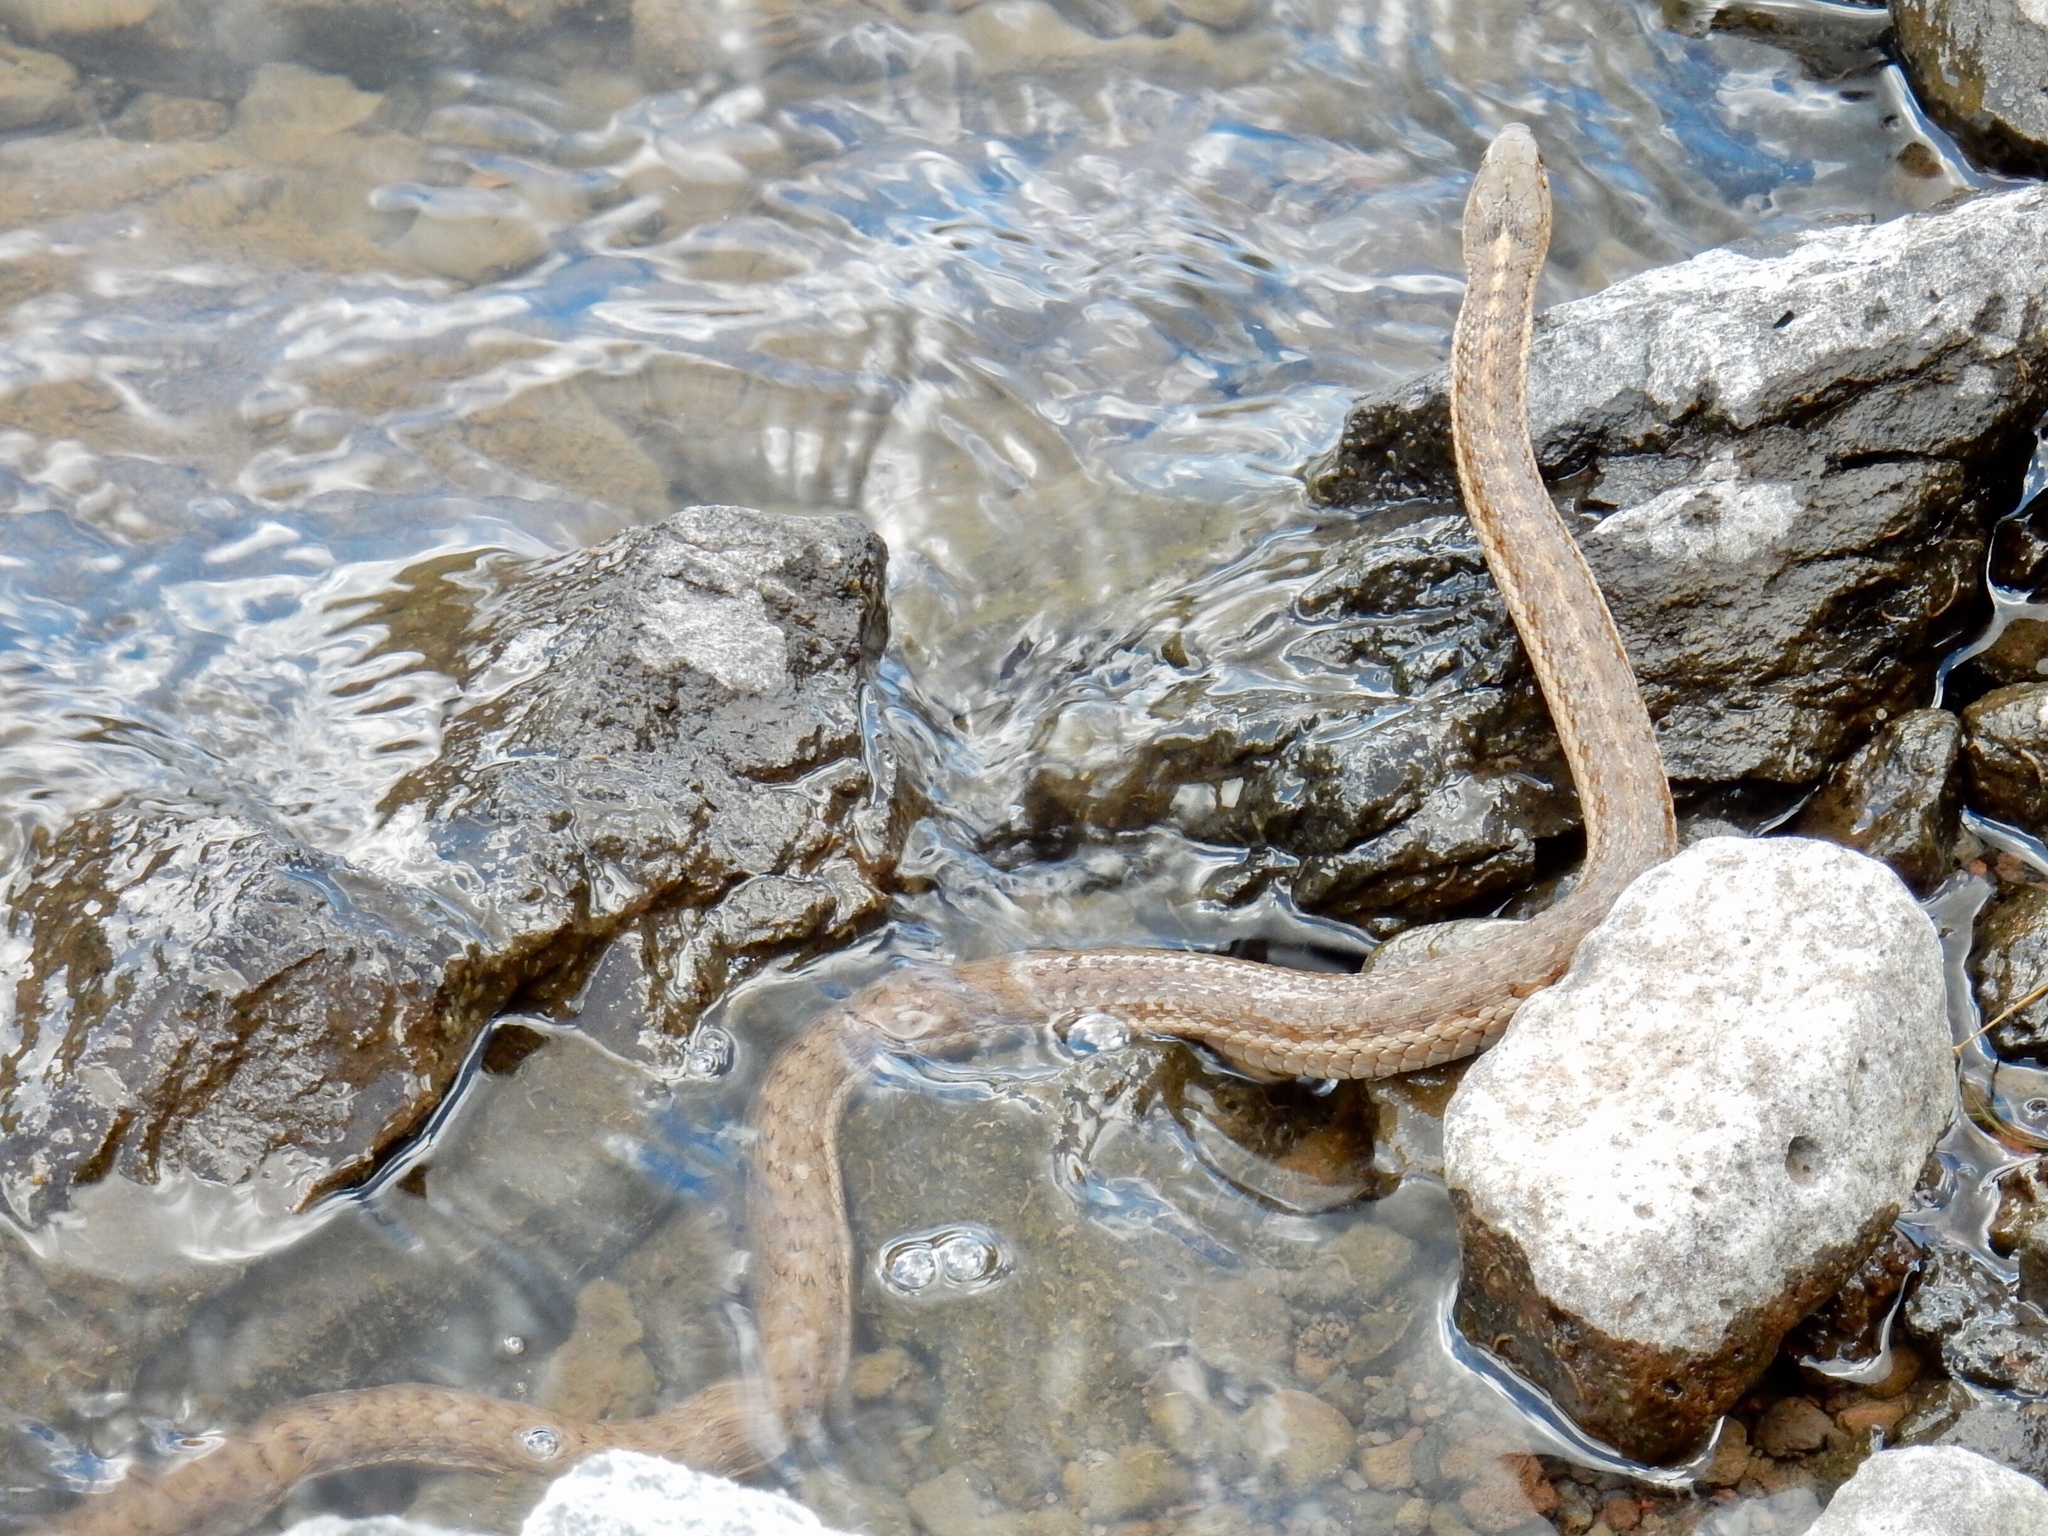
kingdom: Animalia
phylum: Chordata
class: Squamata
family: Colubridae
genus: Thamnophis
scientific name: Thamnophis elegans
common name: Western terrestrial garter snake
